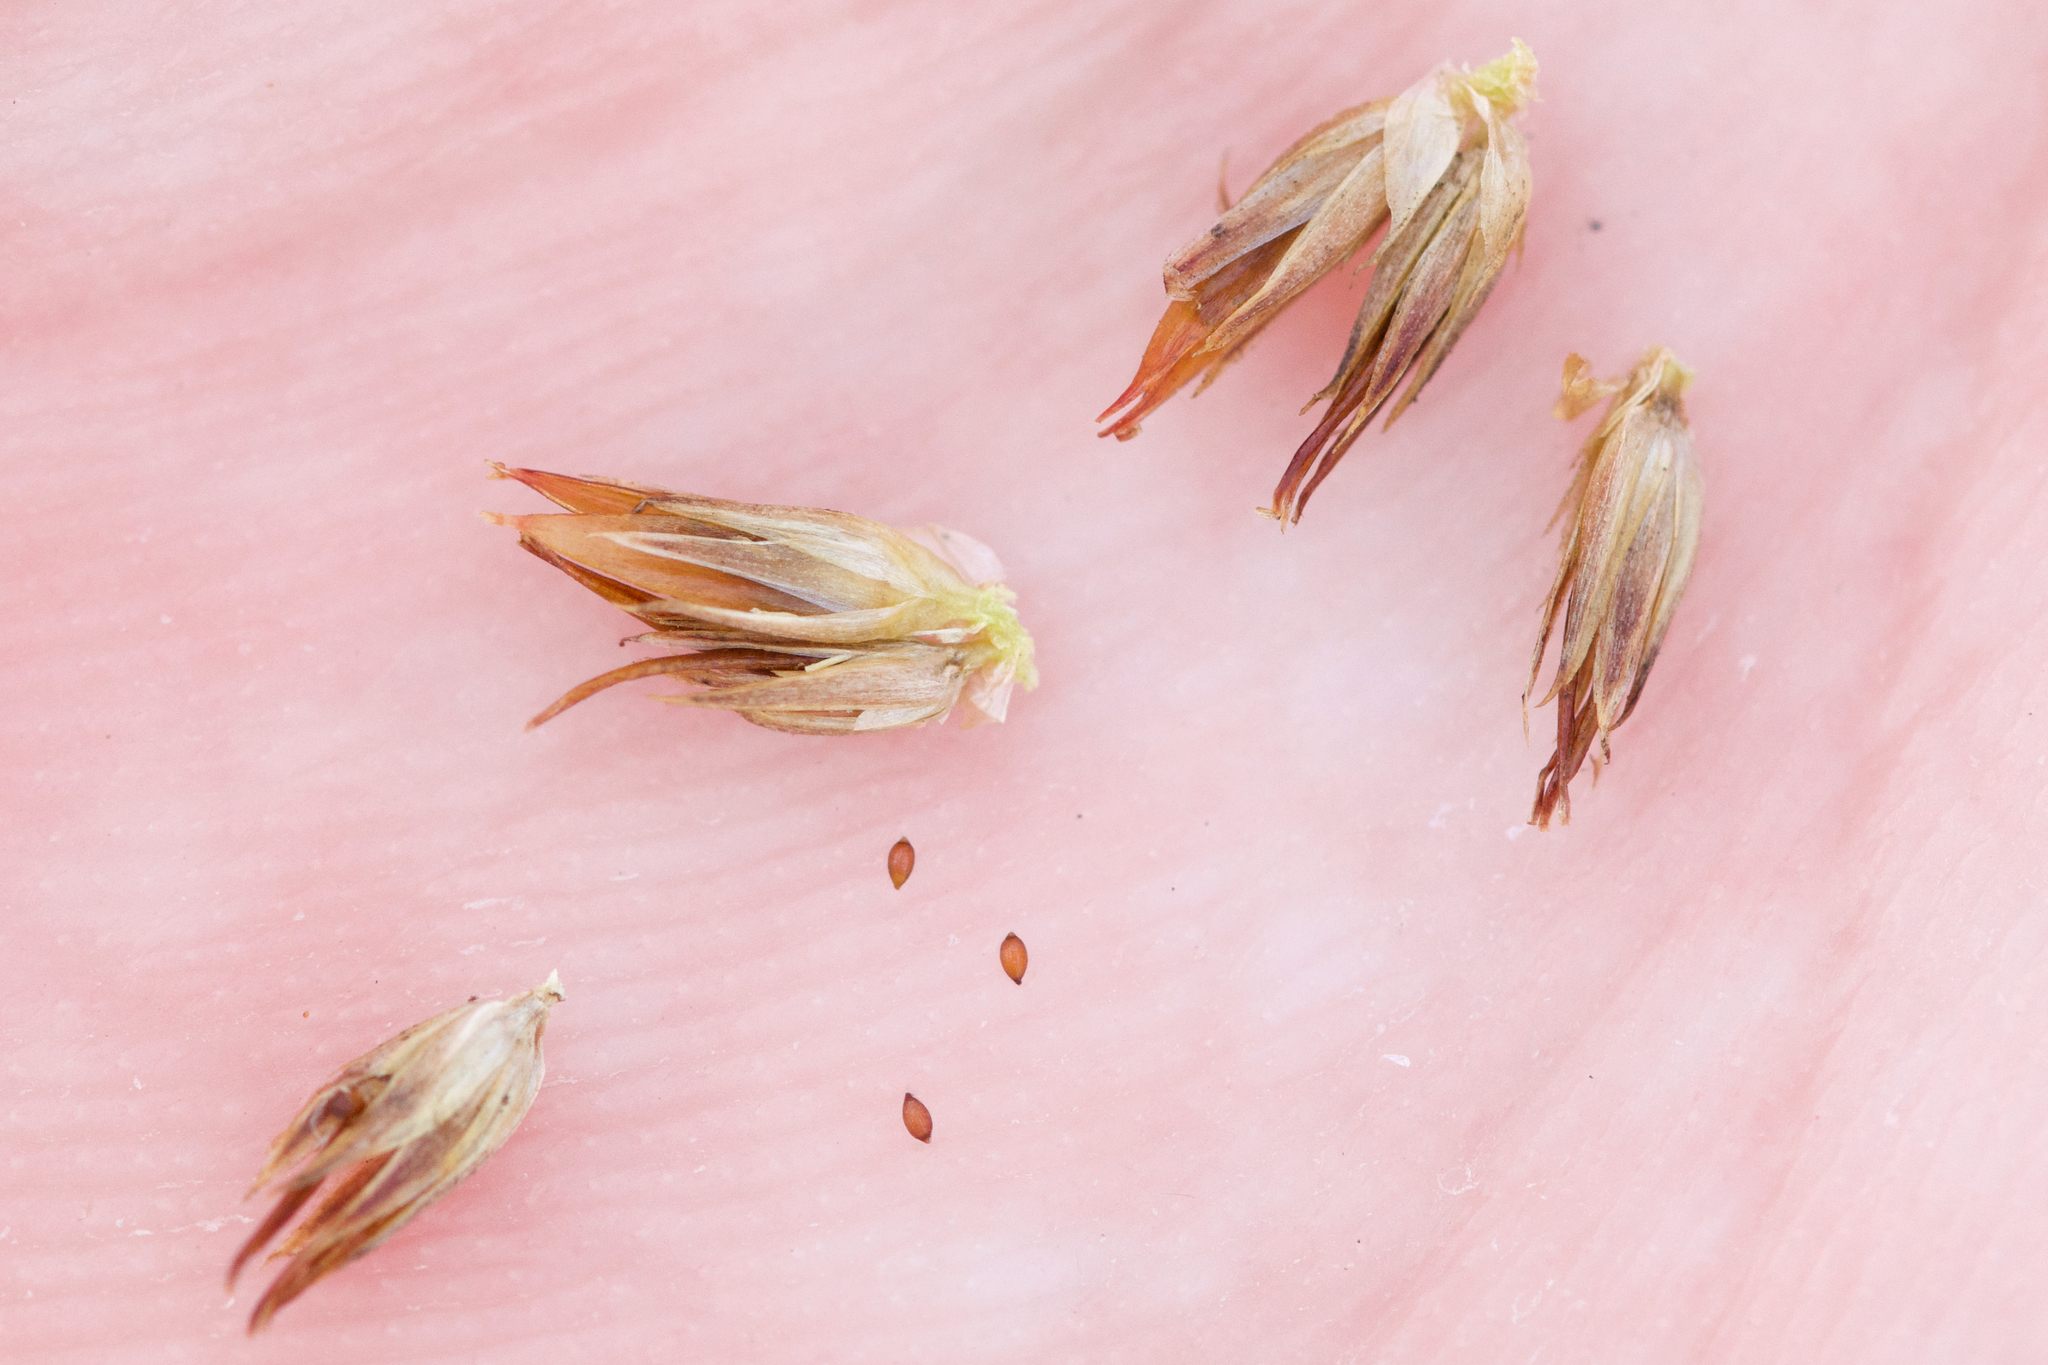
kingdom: Plantae
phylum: Tracheophyta
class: Liliopsida
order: Poales
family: Juncaceae
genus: Juncus
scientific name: Juncus nodosus
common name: Knotted rush
